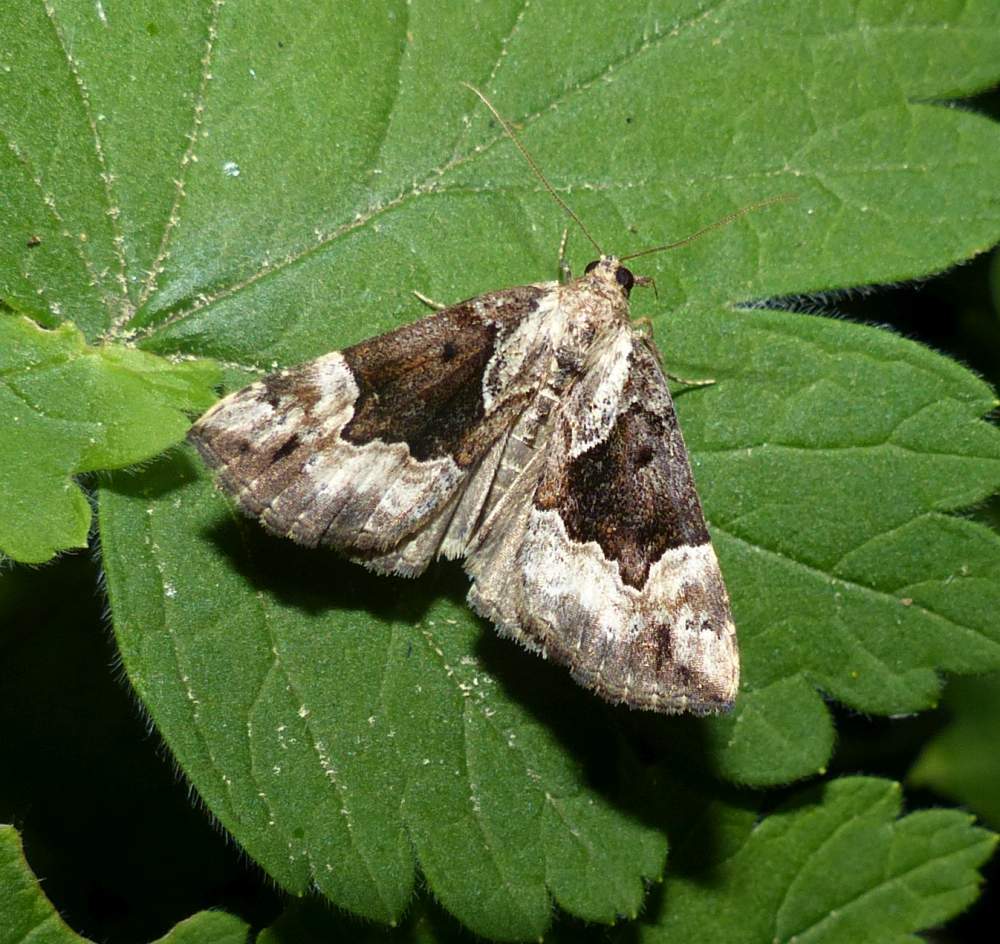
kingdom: Animalia
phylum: Arthropoda
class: Insecta
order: Lepidoptera
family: Erebidae
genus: Hypena
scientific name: Hypena baltimoralis
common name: Baltimore snout
